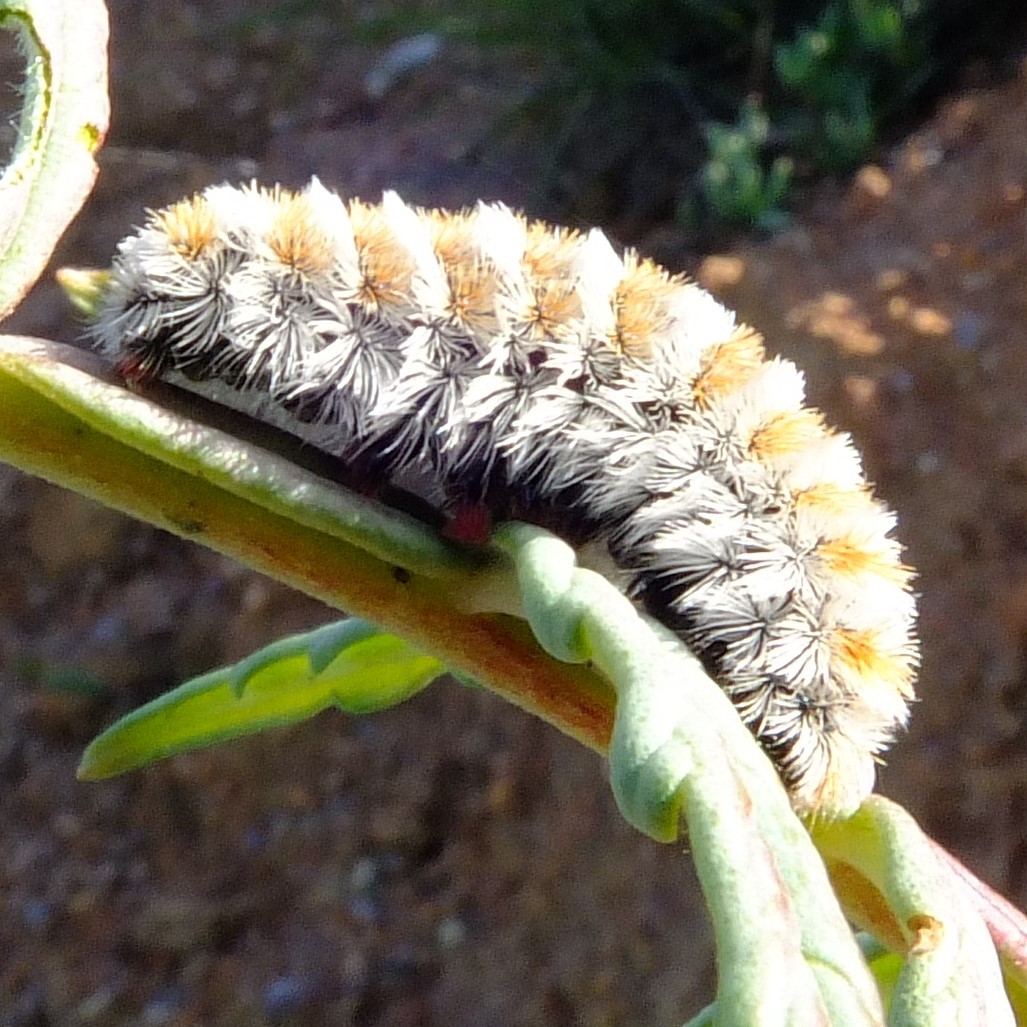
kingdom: Animalia
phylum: Arthropoda
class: Insecta
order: Lepidoptera
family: Erebidae
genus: Aizoa
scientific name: Aizoa namaqua
